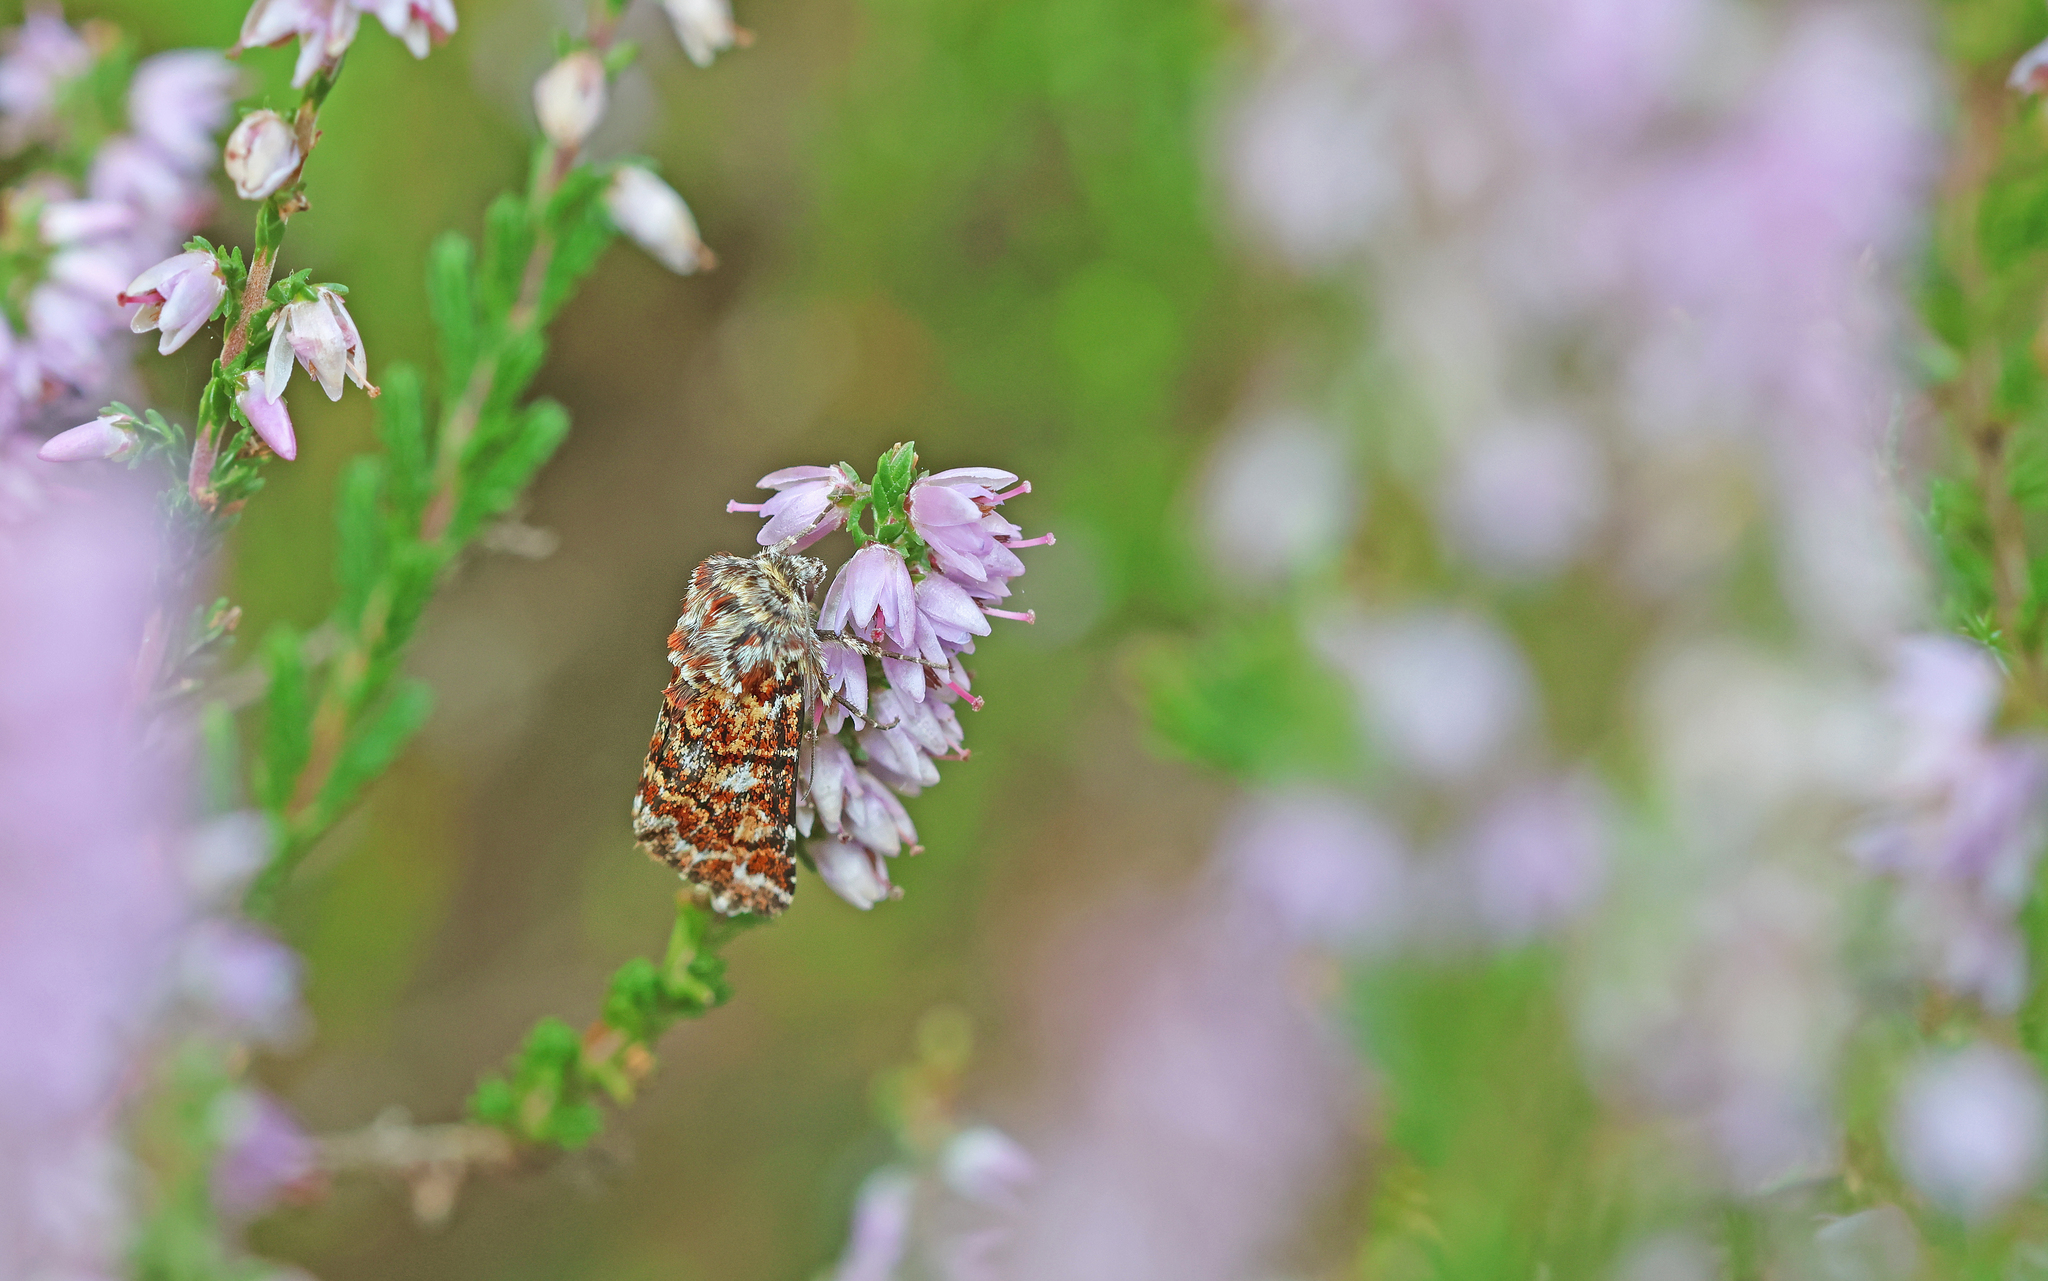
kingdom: Animalia
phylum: Arthropoda
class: Insecta
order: Lepidoptera
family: Noctuidae
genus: Anarta
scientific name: Anarta myrtilli
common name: Beautiful yellow underwing
